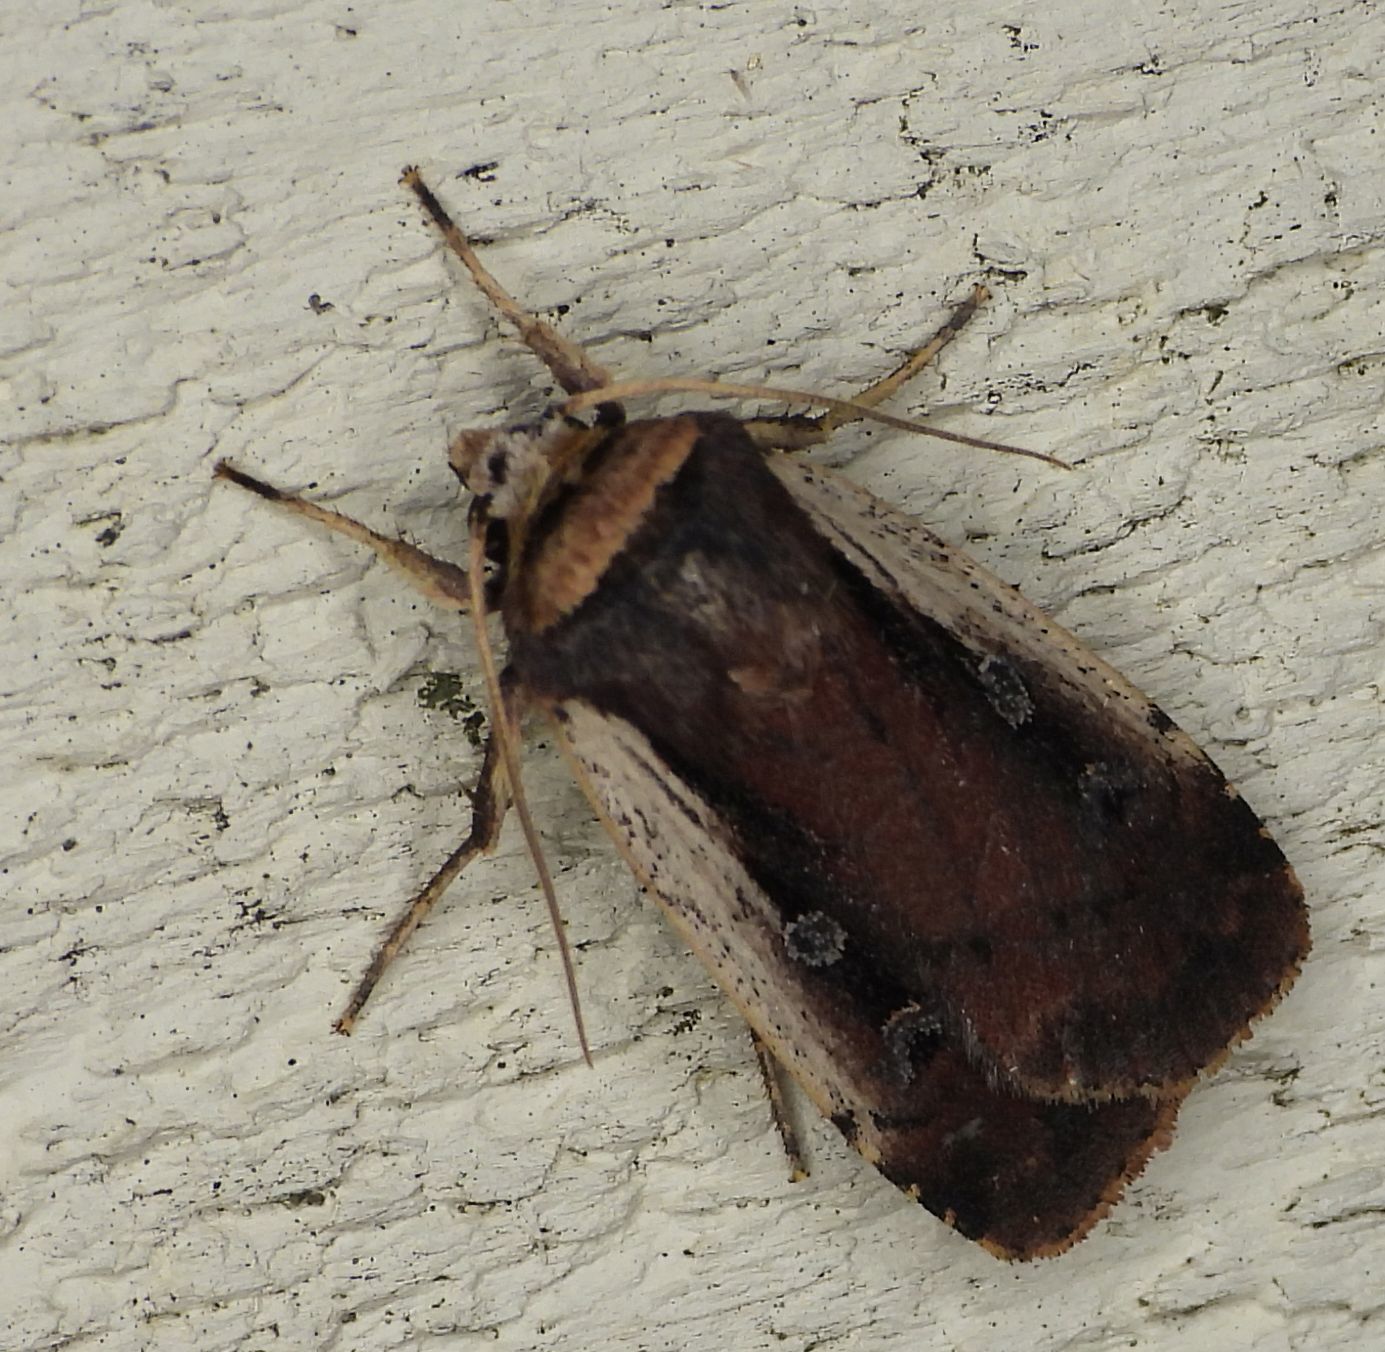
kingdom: Animalia
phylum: Arthropoda
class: Insecta
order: Lepidoptera
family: Noctuidae
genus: Ochropleura
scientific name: Ochropleura implecta
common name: Flame-shouldered dart
